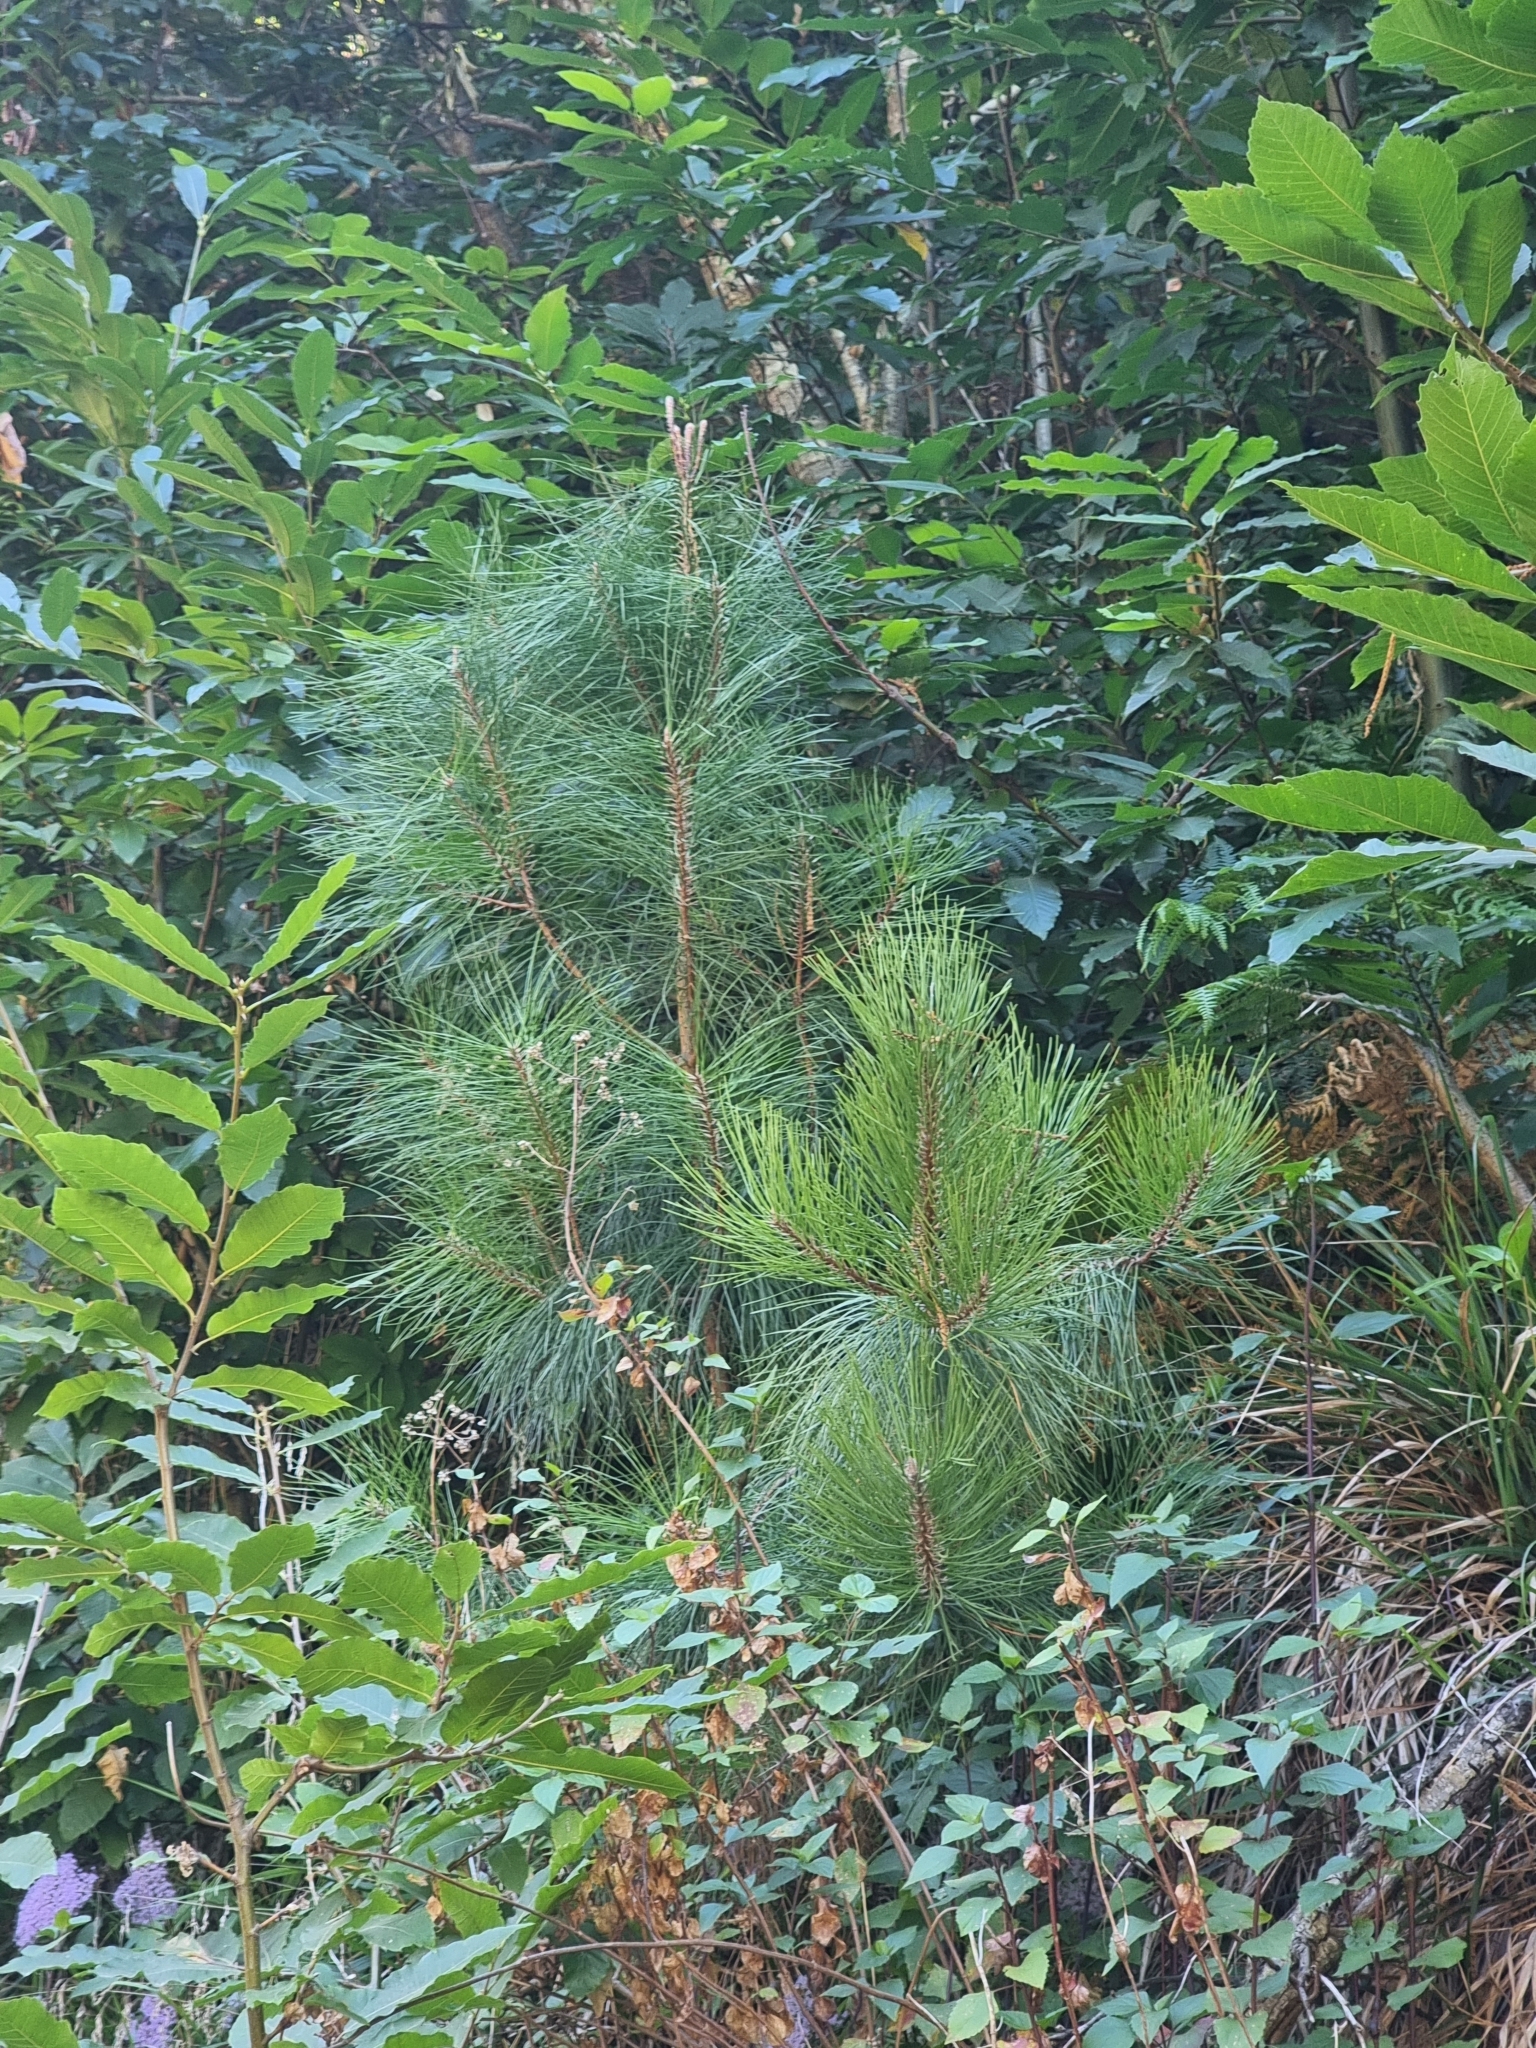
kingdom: Plantae
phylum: Tracheophyta
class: Pinopsida
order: Pinales
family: Pinaceae
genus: Pinus
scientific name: Pinus pinaster
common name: Maritime pine
